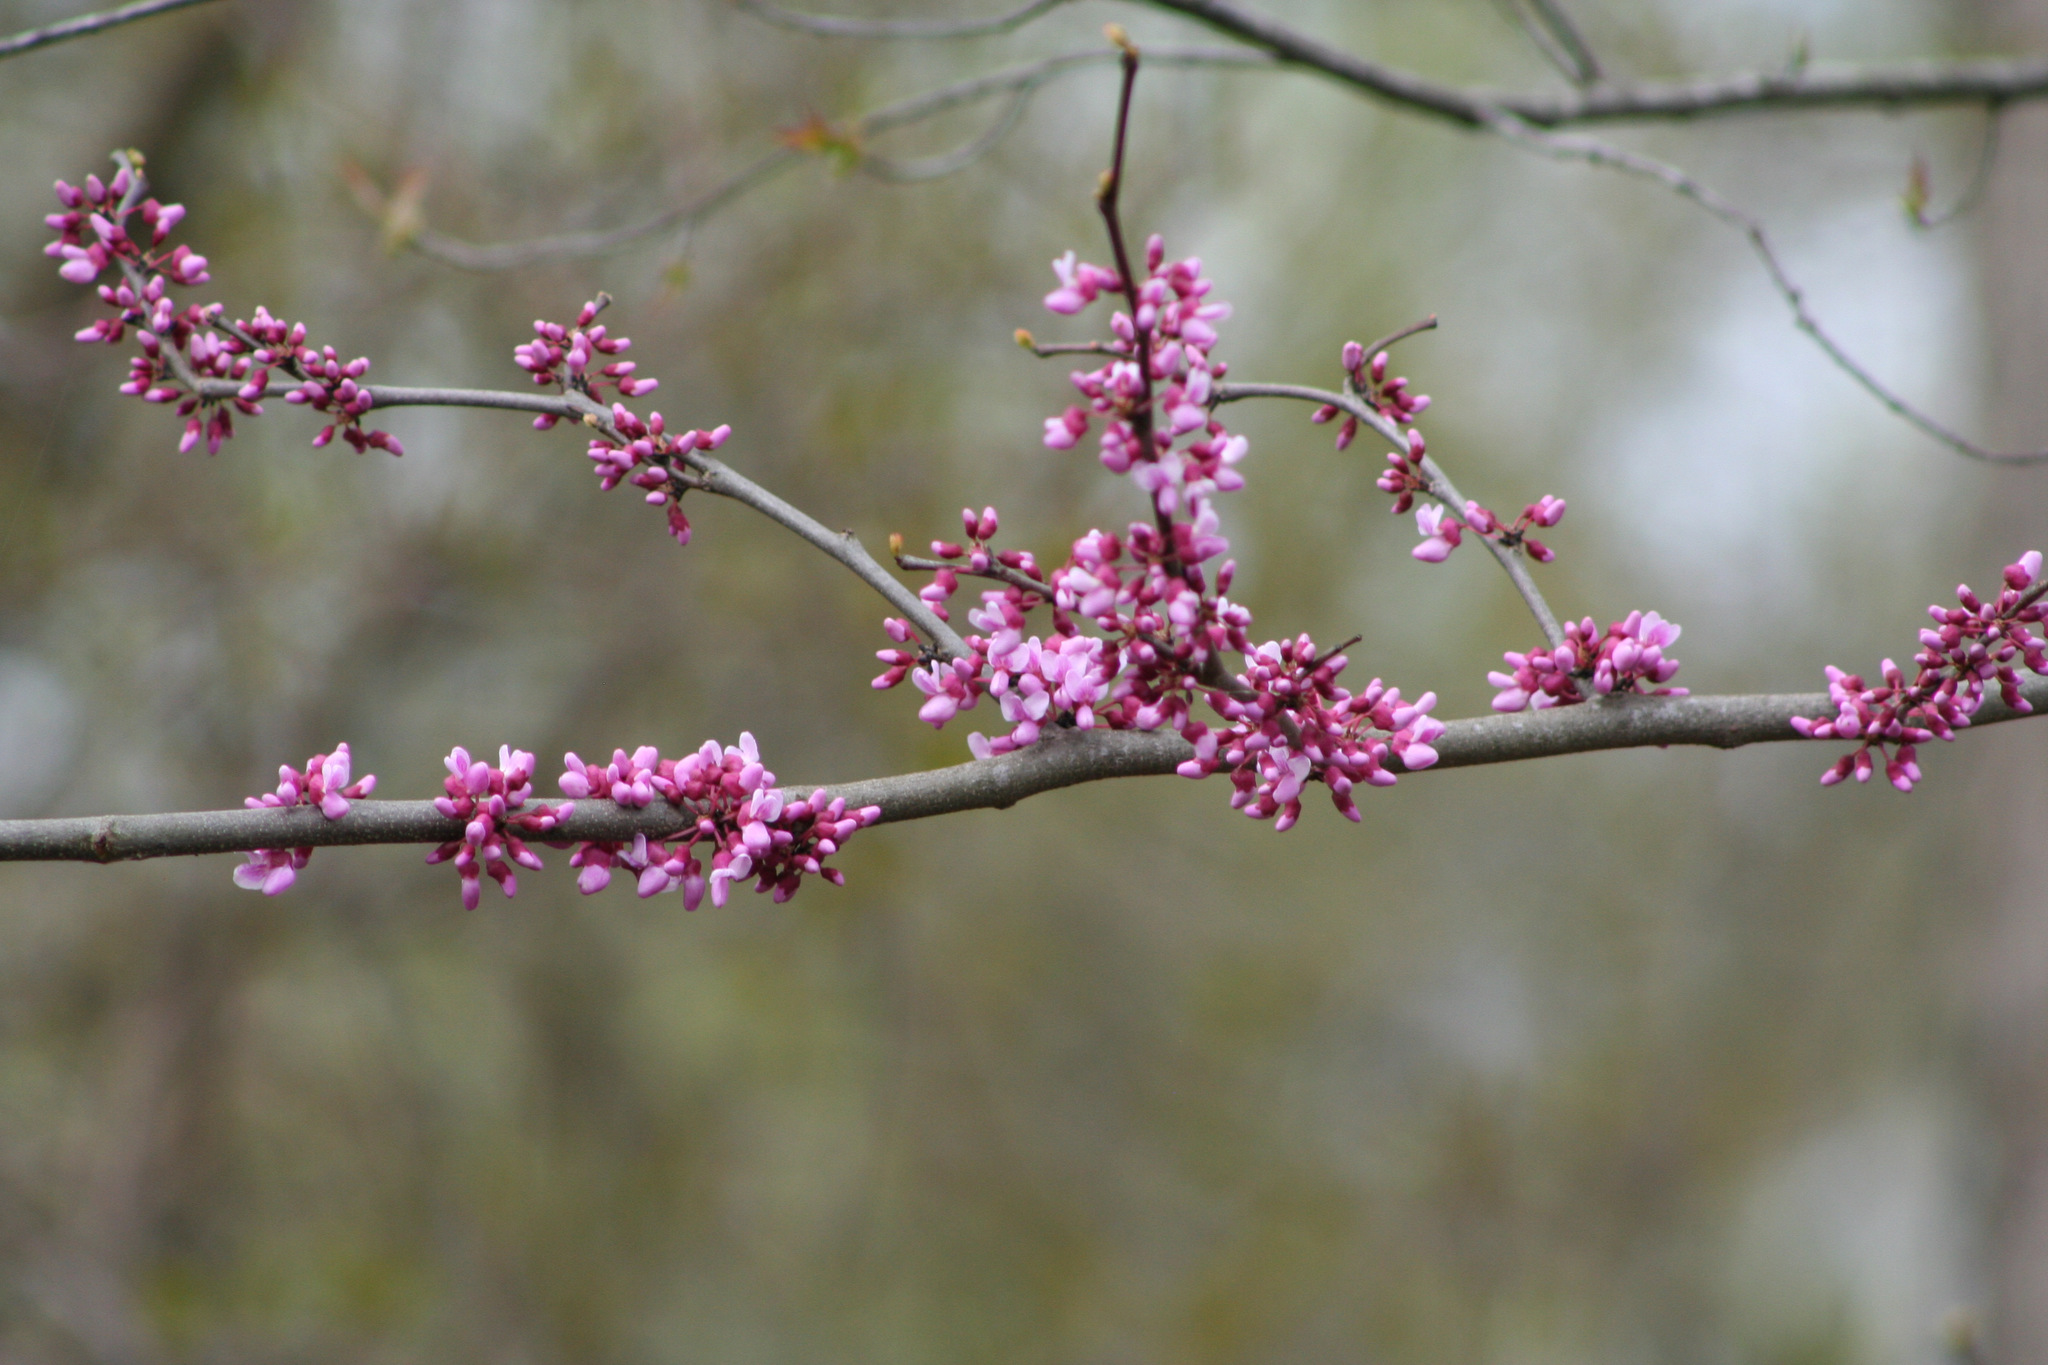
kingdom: Plantae
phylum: Tracheophyta
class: Magnoliopsida
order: Fabales
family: Fabaceae
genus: Cercis
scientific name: Cercis canadensis
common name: Eastern redbud
